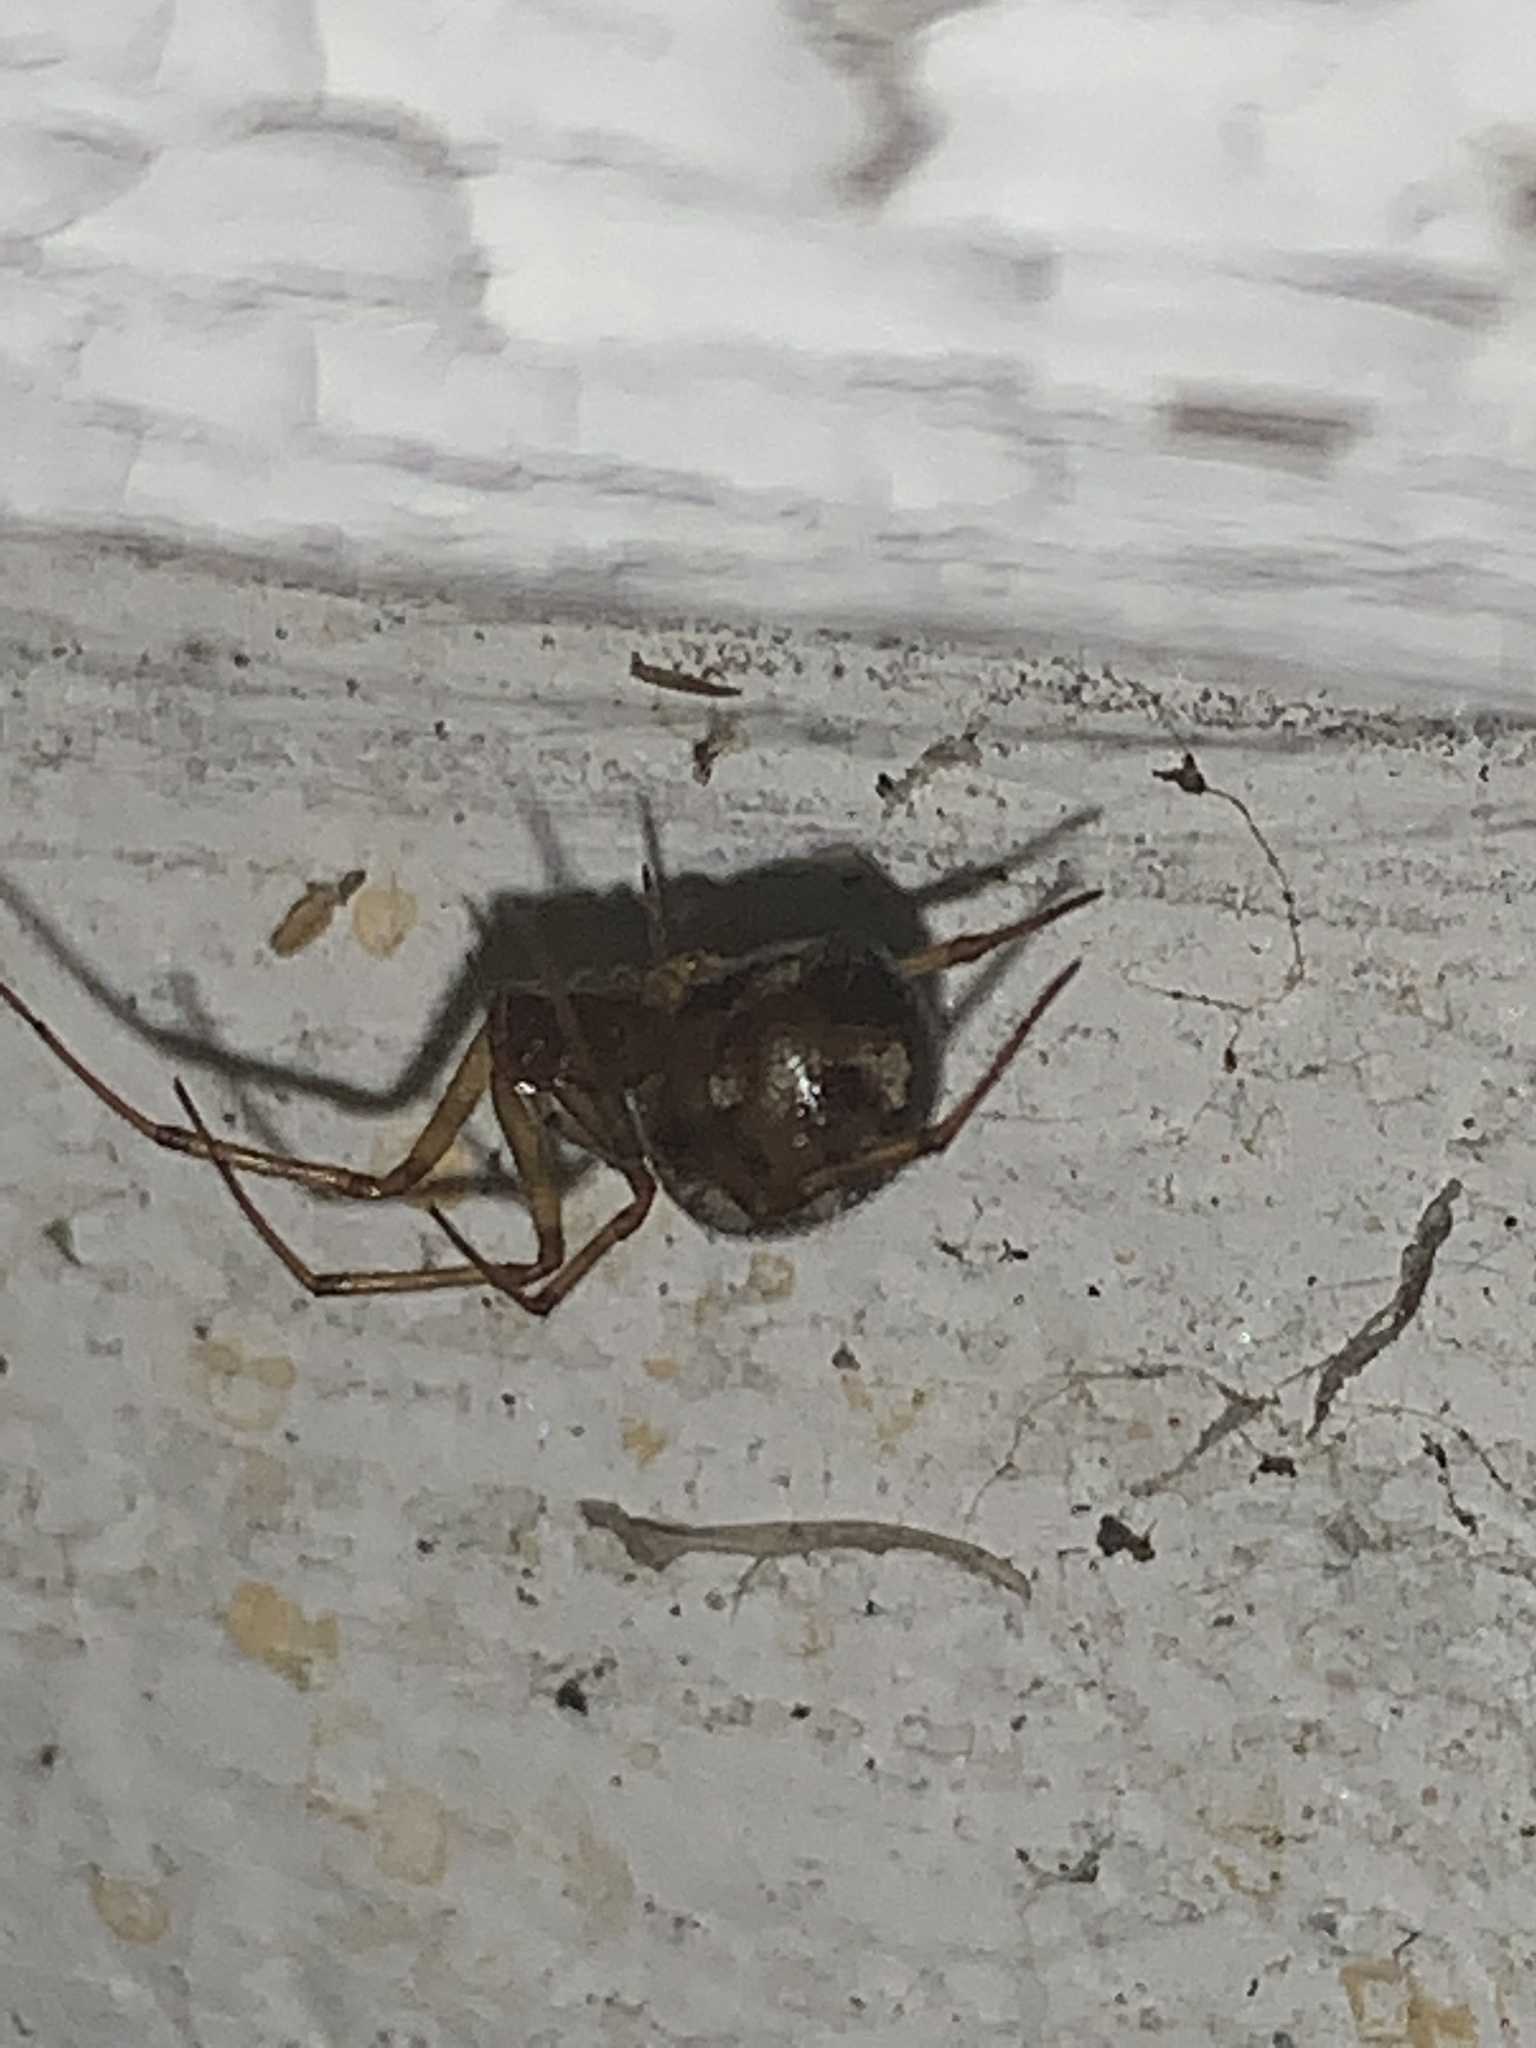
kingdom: Animalia
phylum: Arthropoda
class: Arachnida
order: Araneae
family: Theridiidae
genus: Steatoda
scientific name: Steatoda triangulosa
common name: Triangulate bud spider
